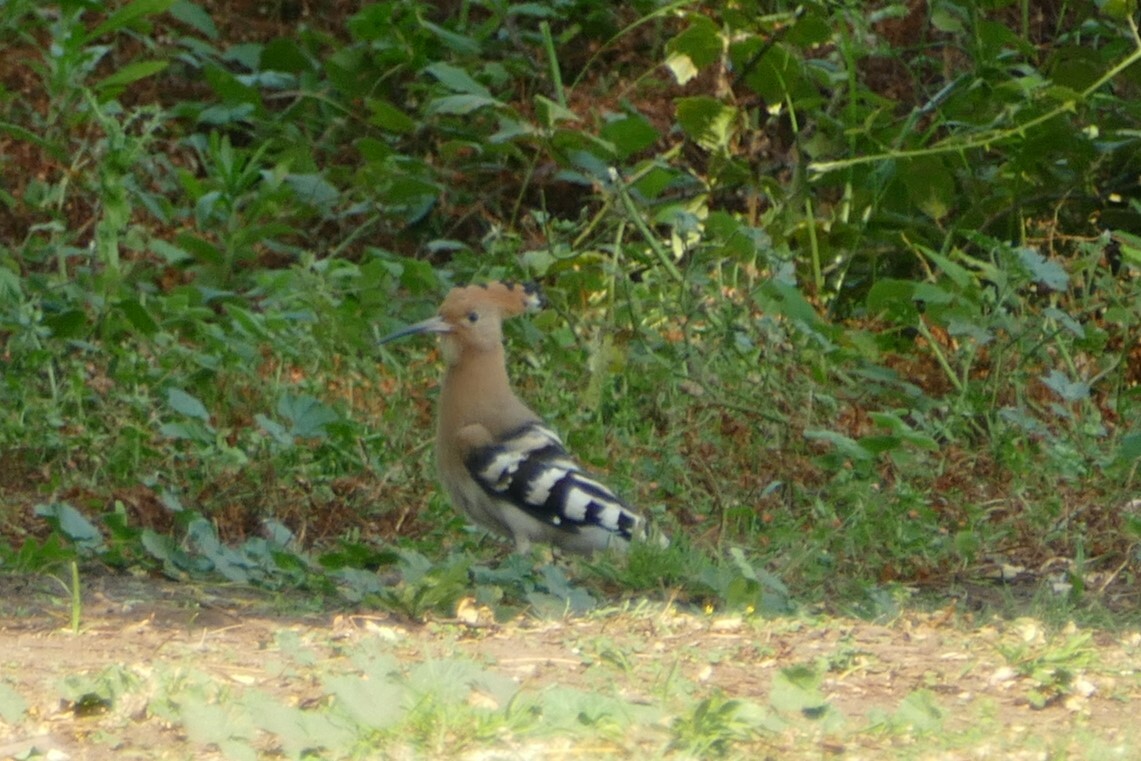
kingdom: Animalia
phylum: Chordata
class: Aves
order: Bucerotiformes
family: Upupidae
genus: Upupa
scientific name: Upupa epops
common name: Eurasian hoopoe
